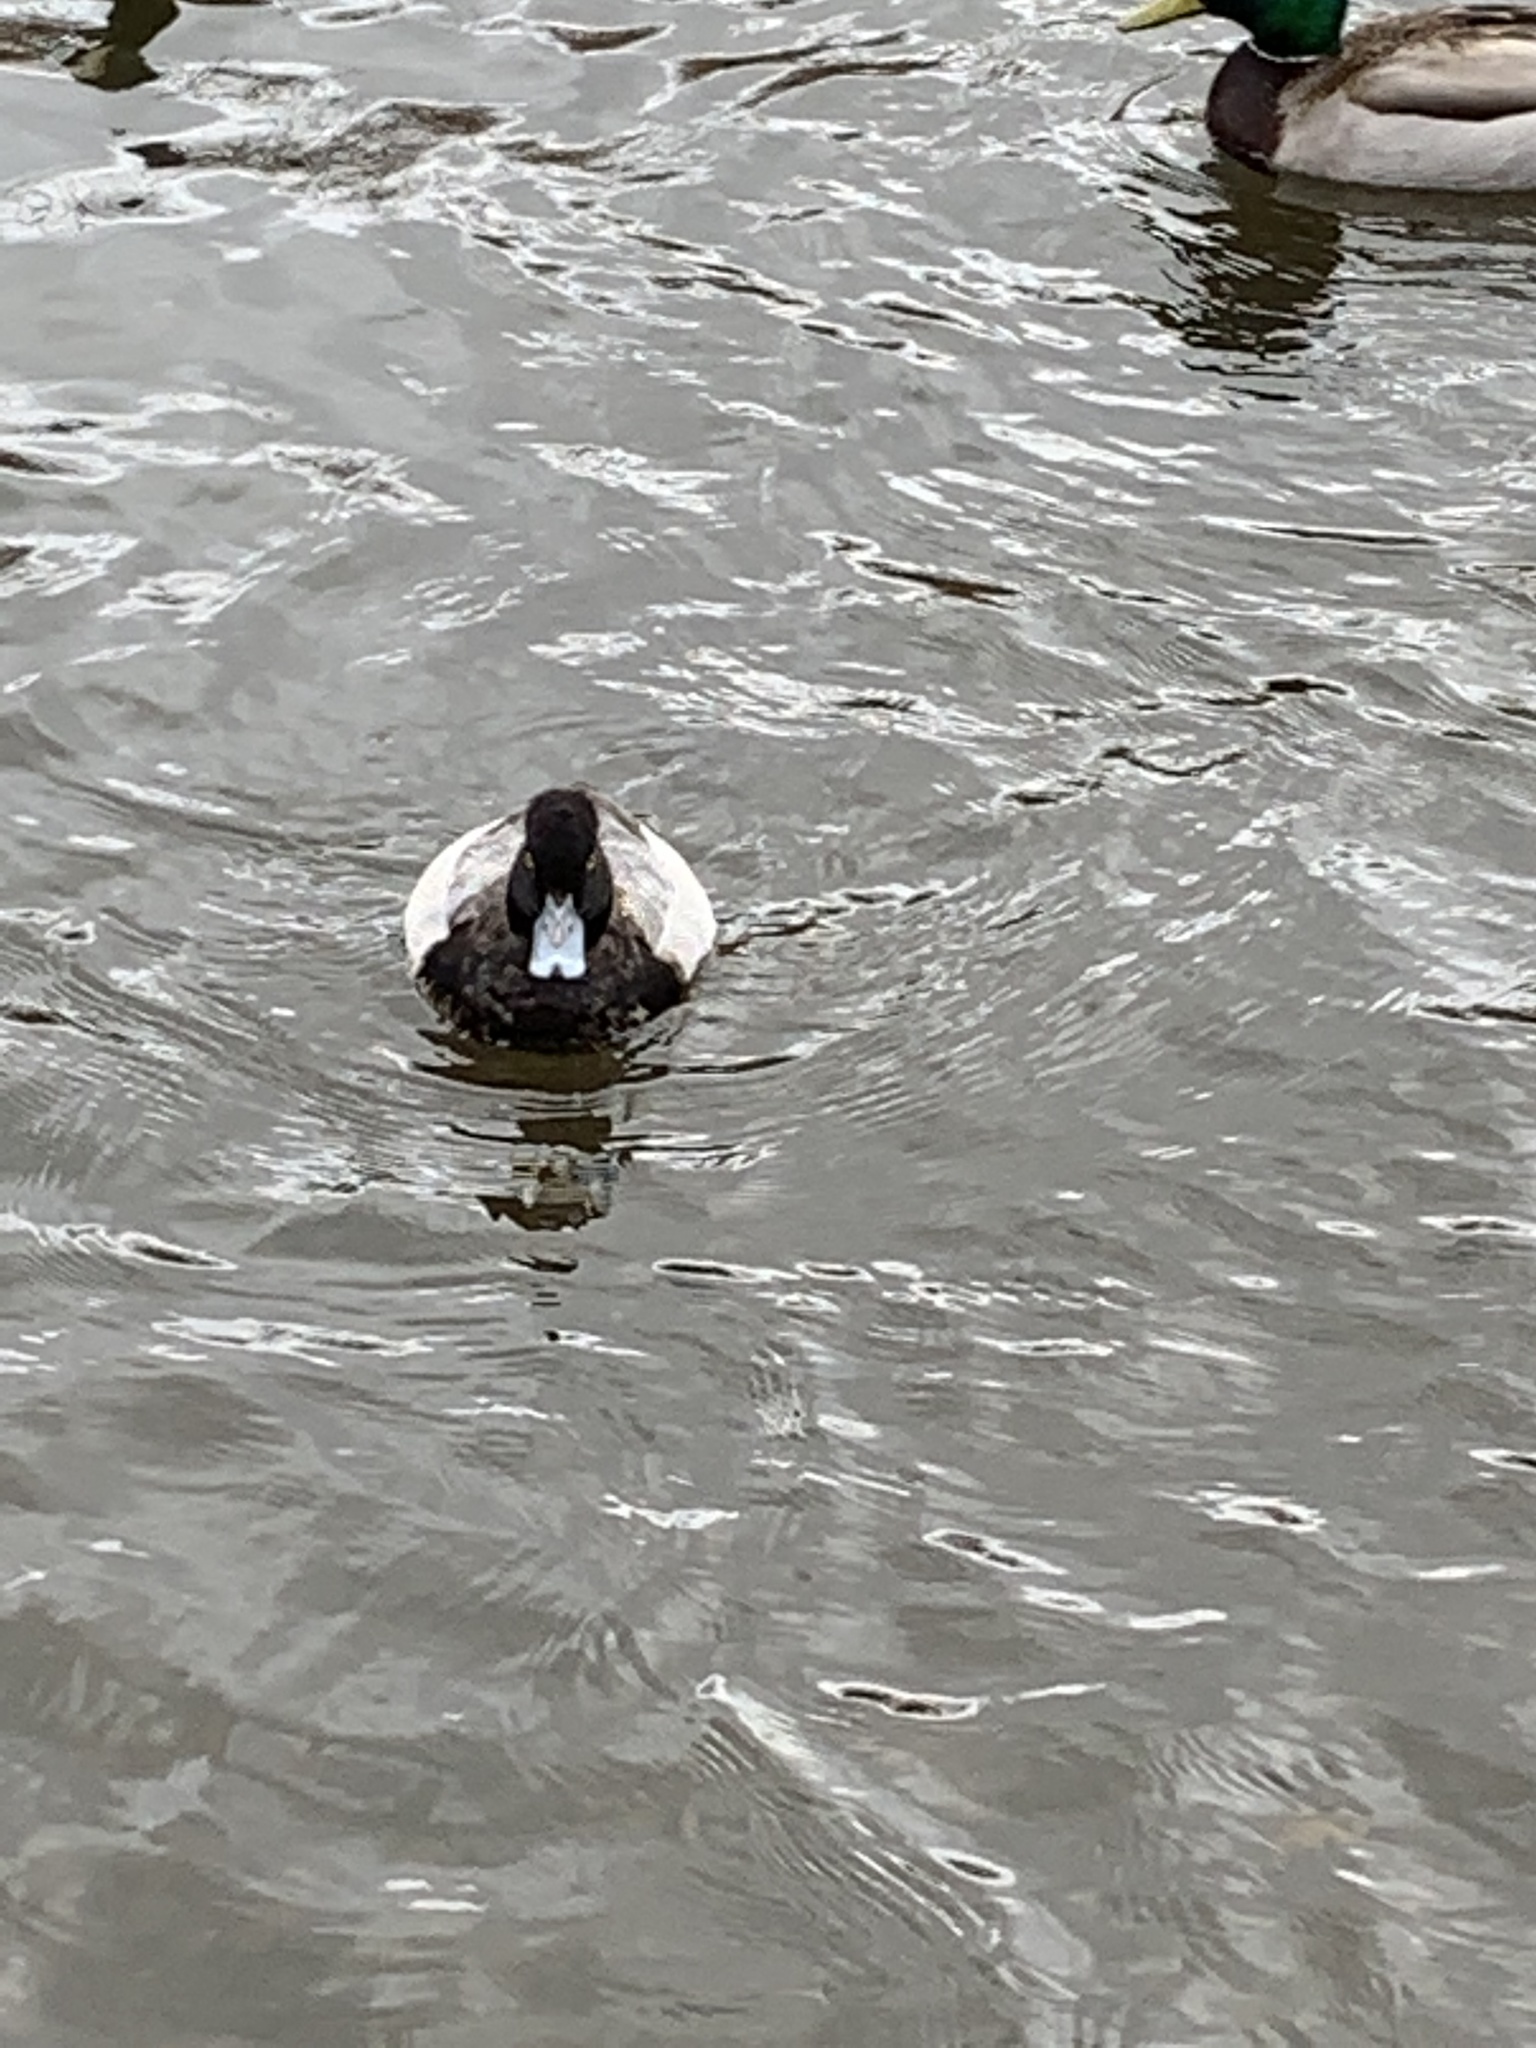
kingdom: Animalia
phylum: Chordata
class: Aves
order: Anseriformes
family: Anatidae
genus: Aythya
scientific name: Aythya affinis
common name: Lesser scaup
